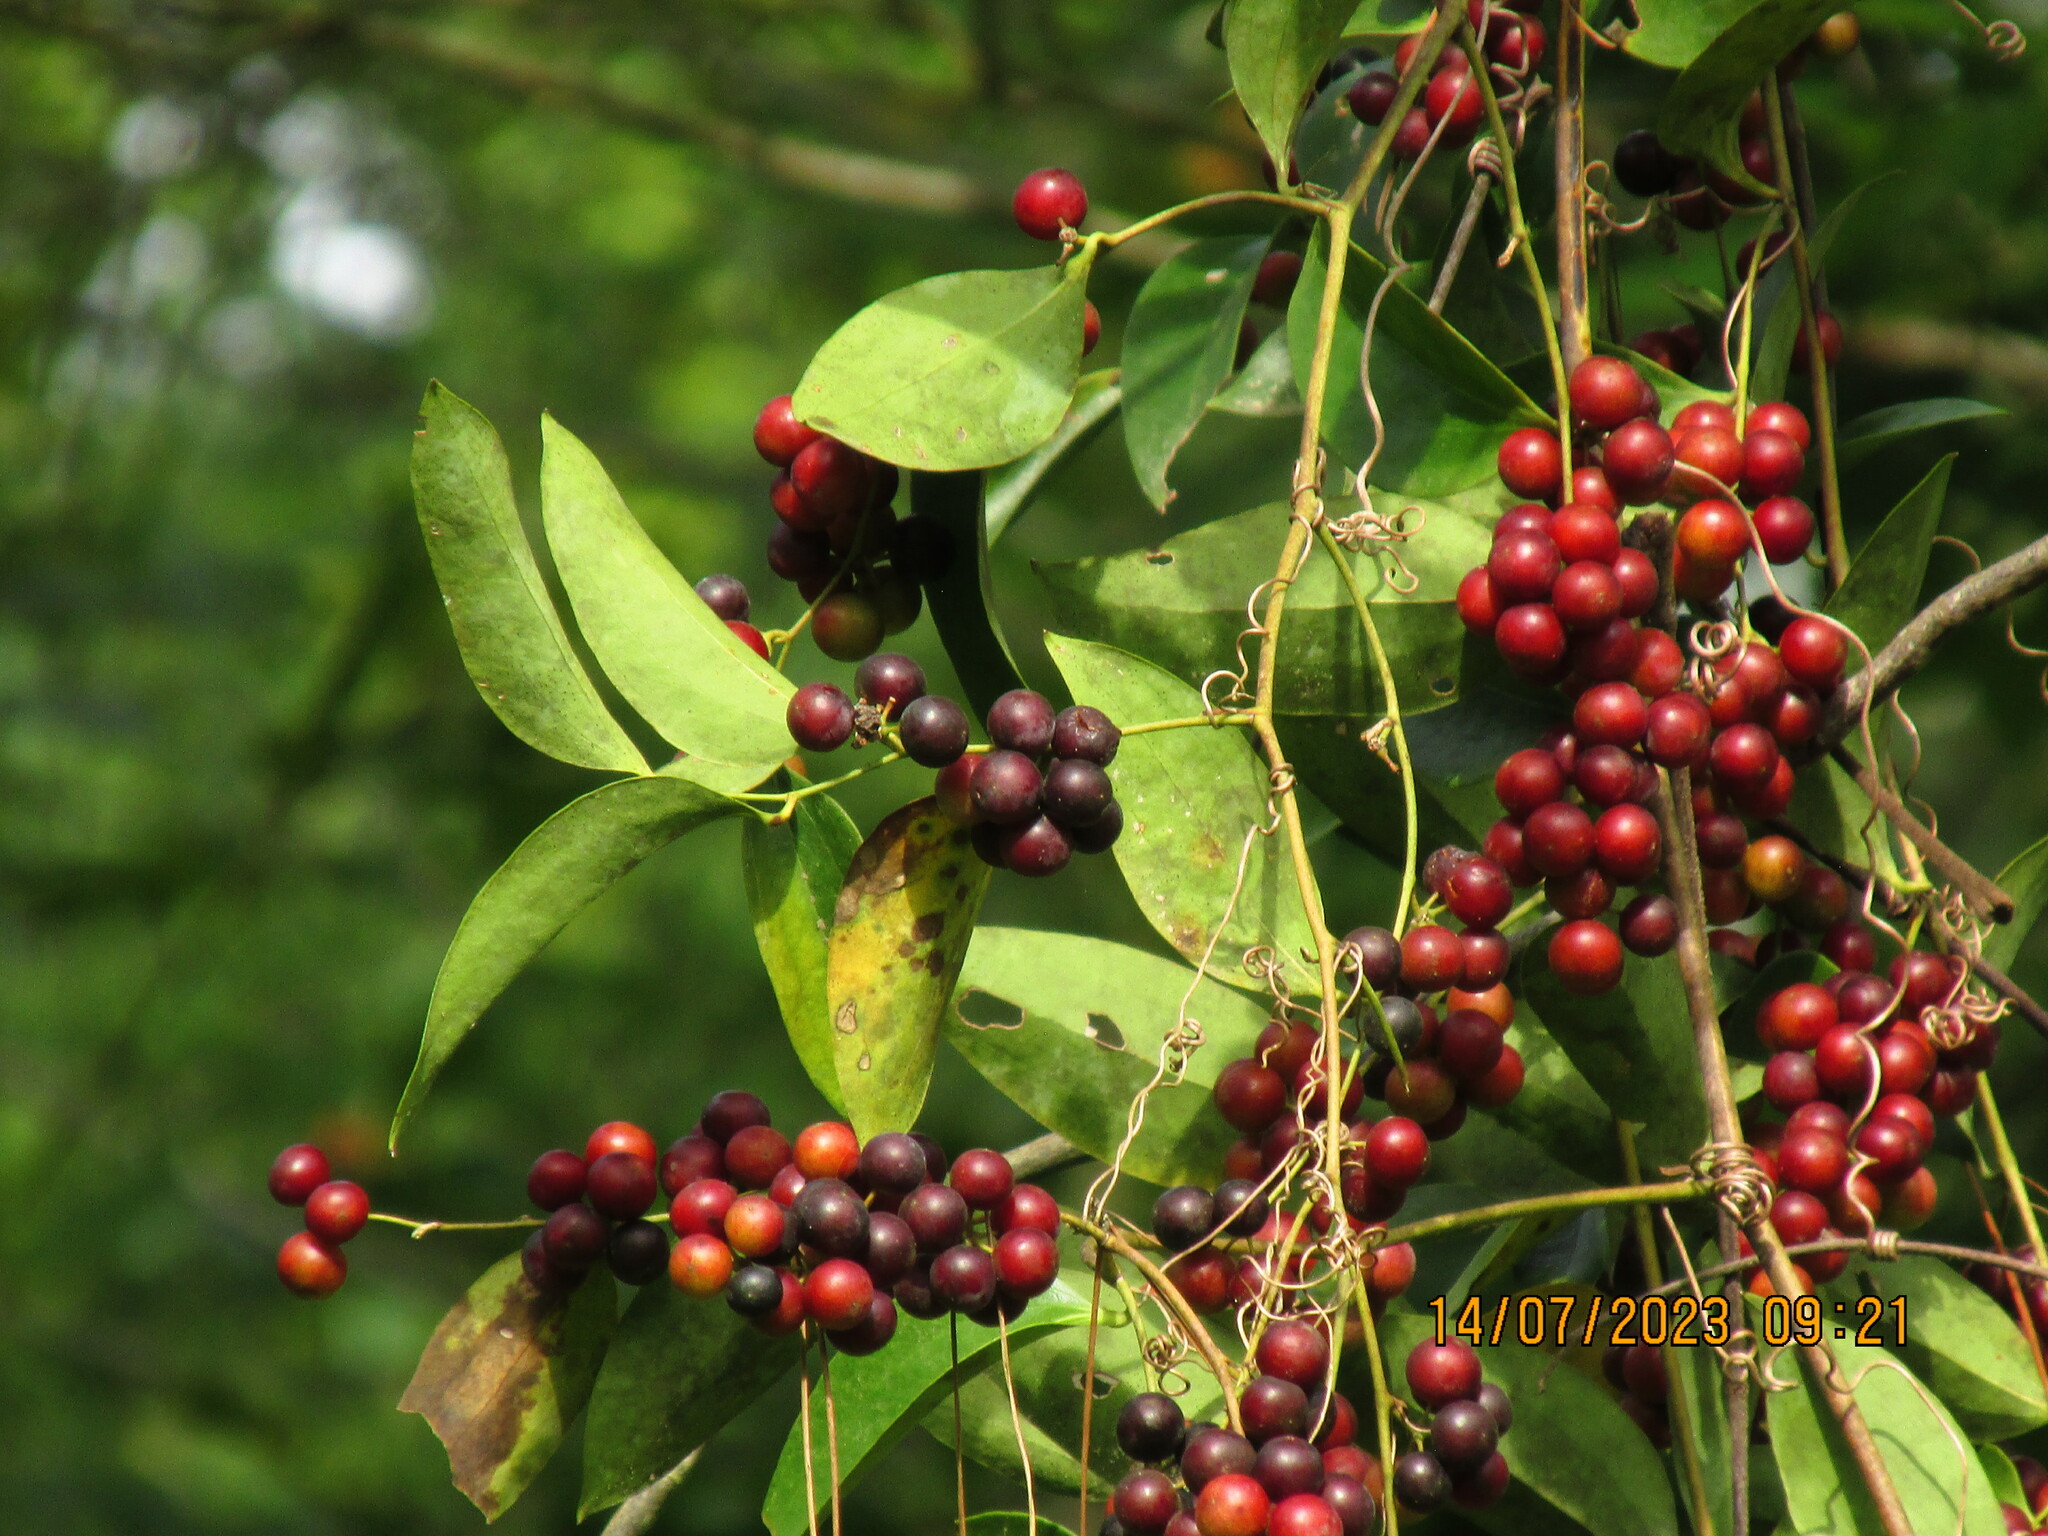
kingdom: Plantae
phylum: Tracheophyta
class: Liliopsida
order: Liliales
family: Smilacaceae
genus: Smilax
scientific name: Smilax maritima
